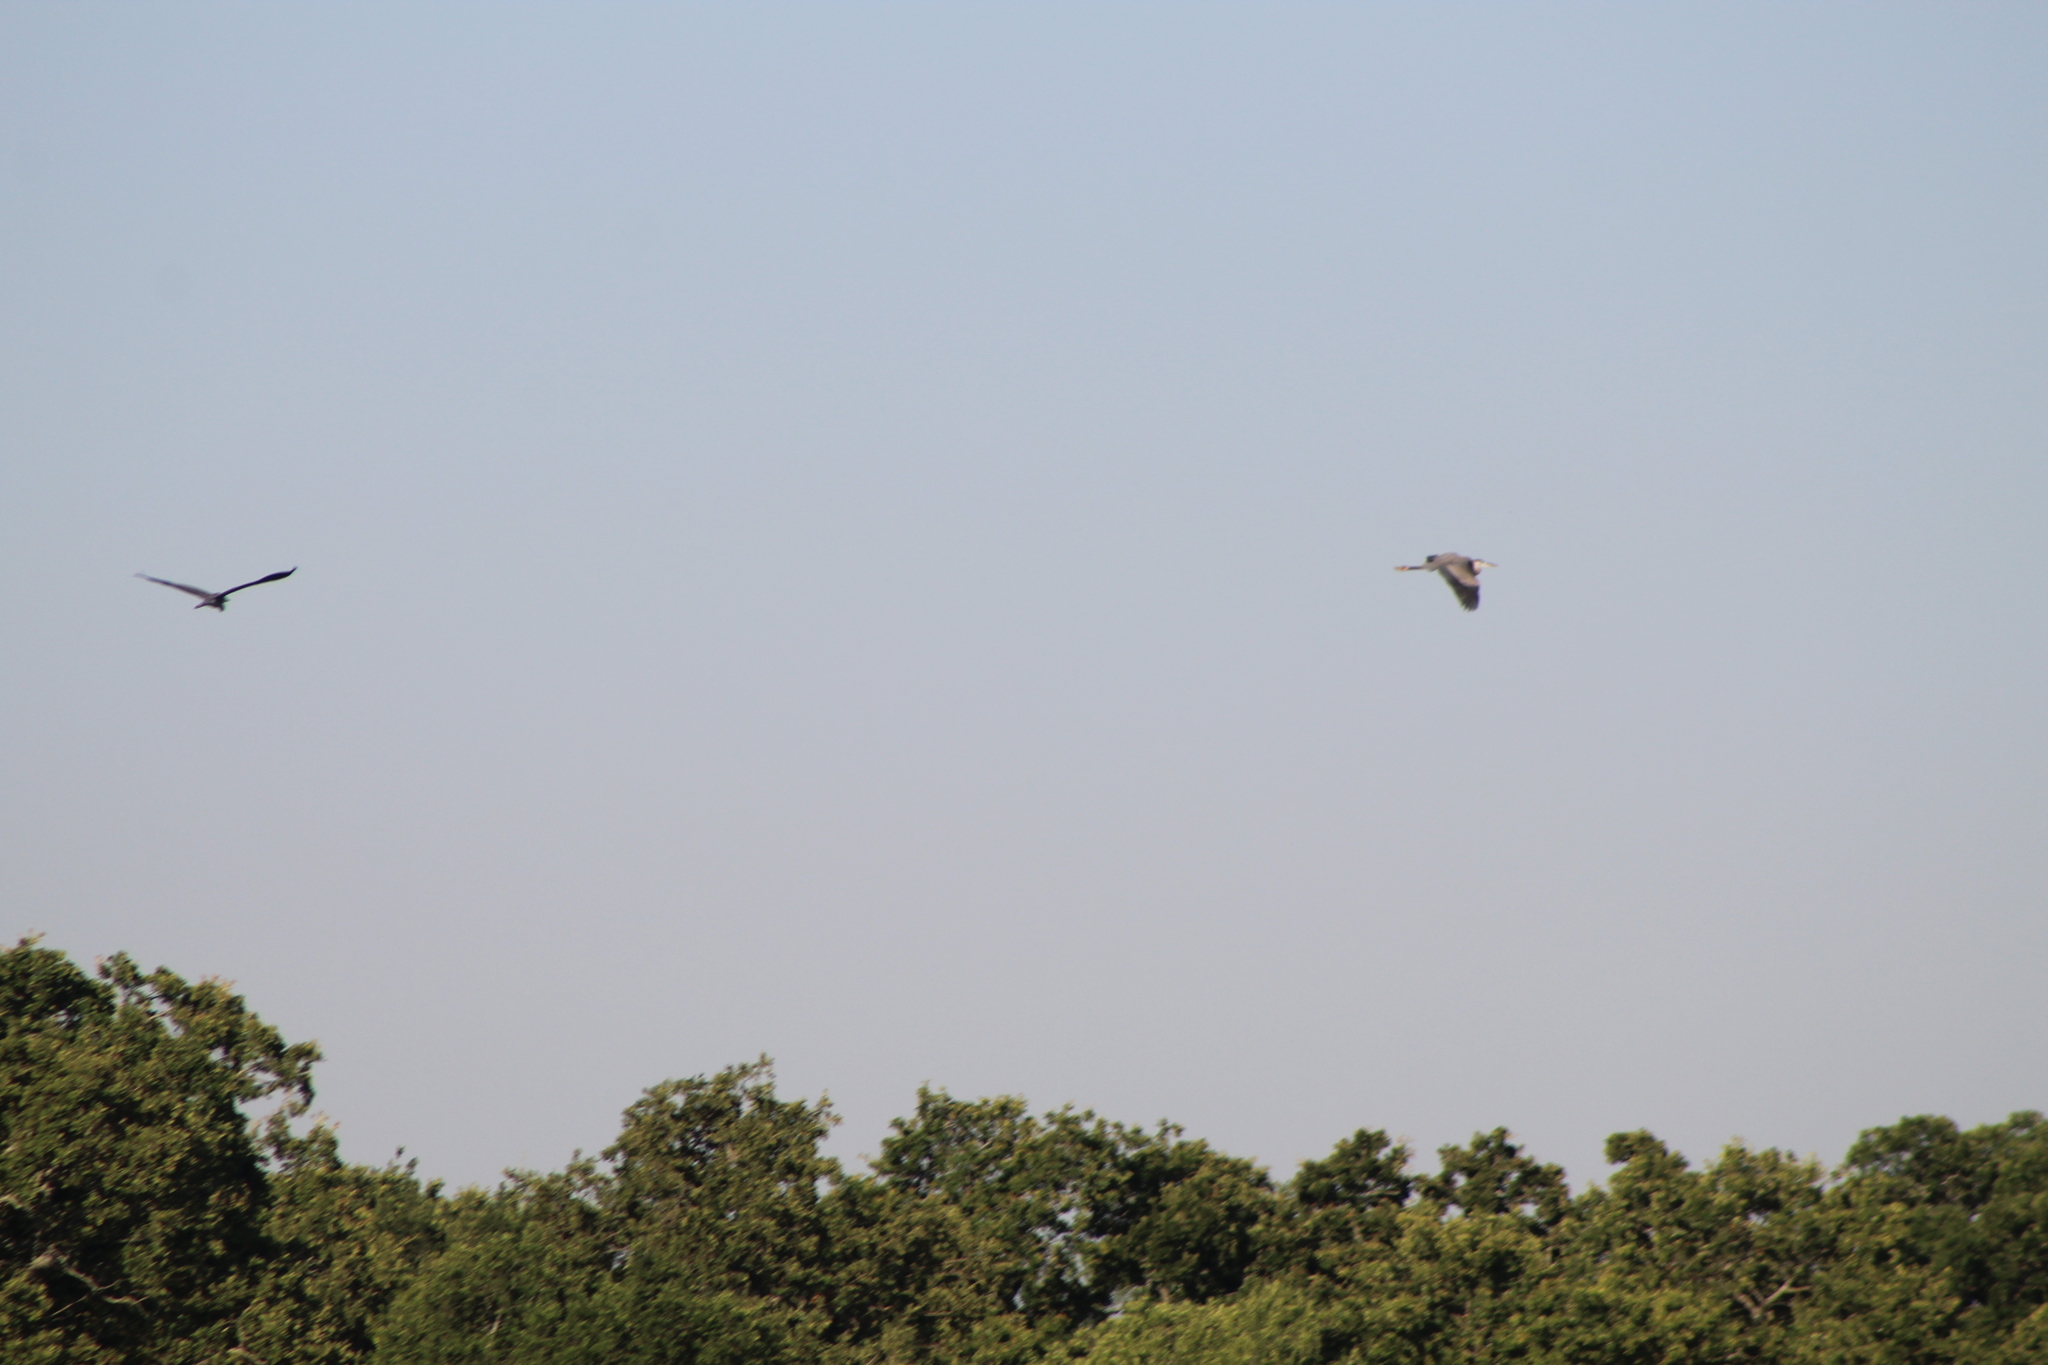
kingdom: Animalia
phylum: Chordata
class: Aves
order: Pelecaniformes
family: Ardeidae
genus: Ardea
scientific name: Ardea herodias
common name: Great blue heron
